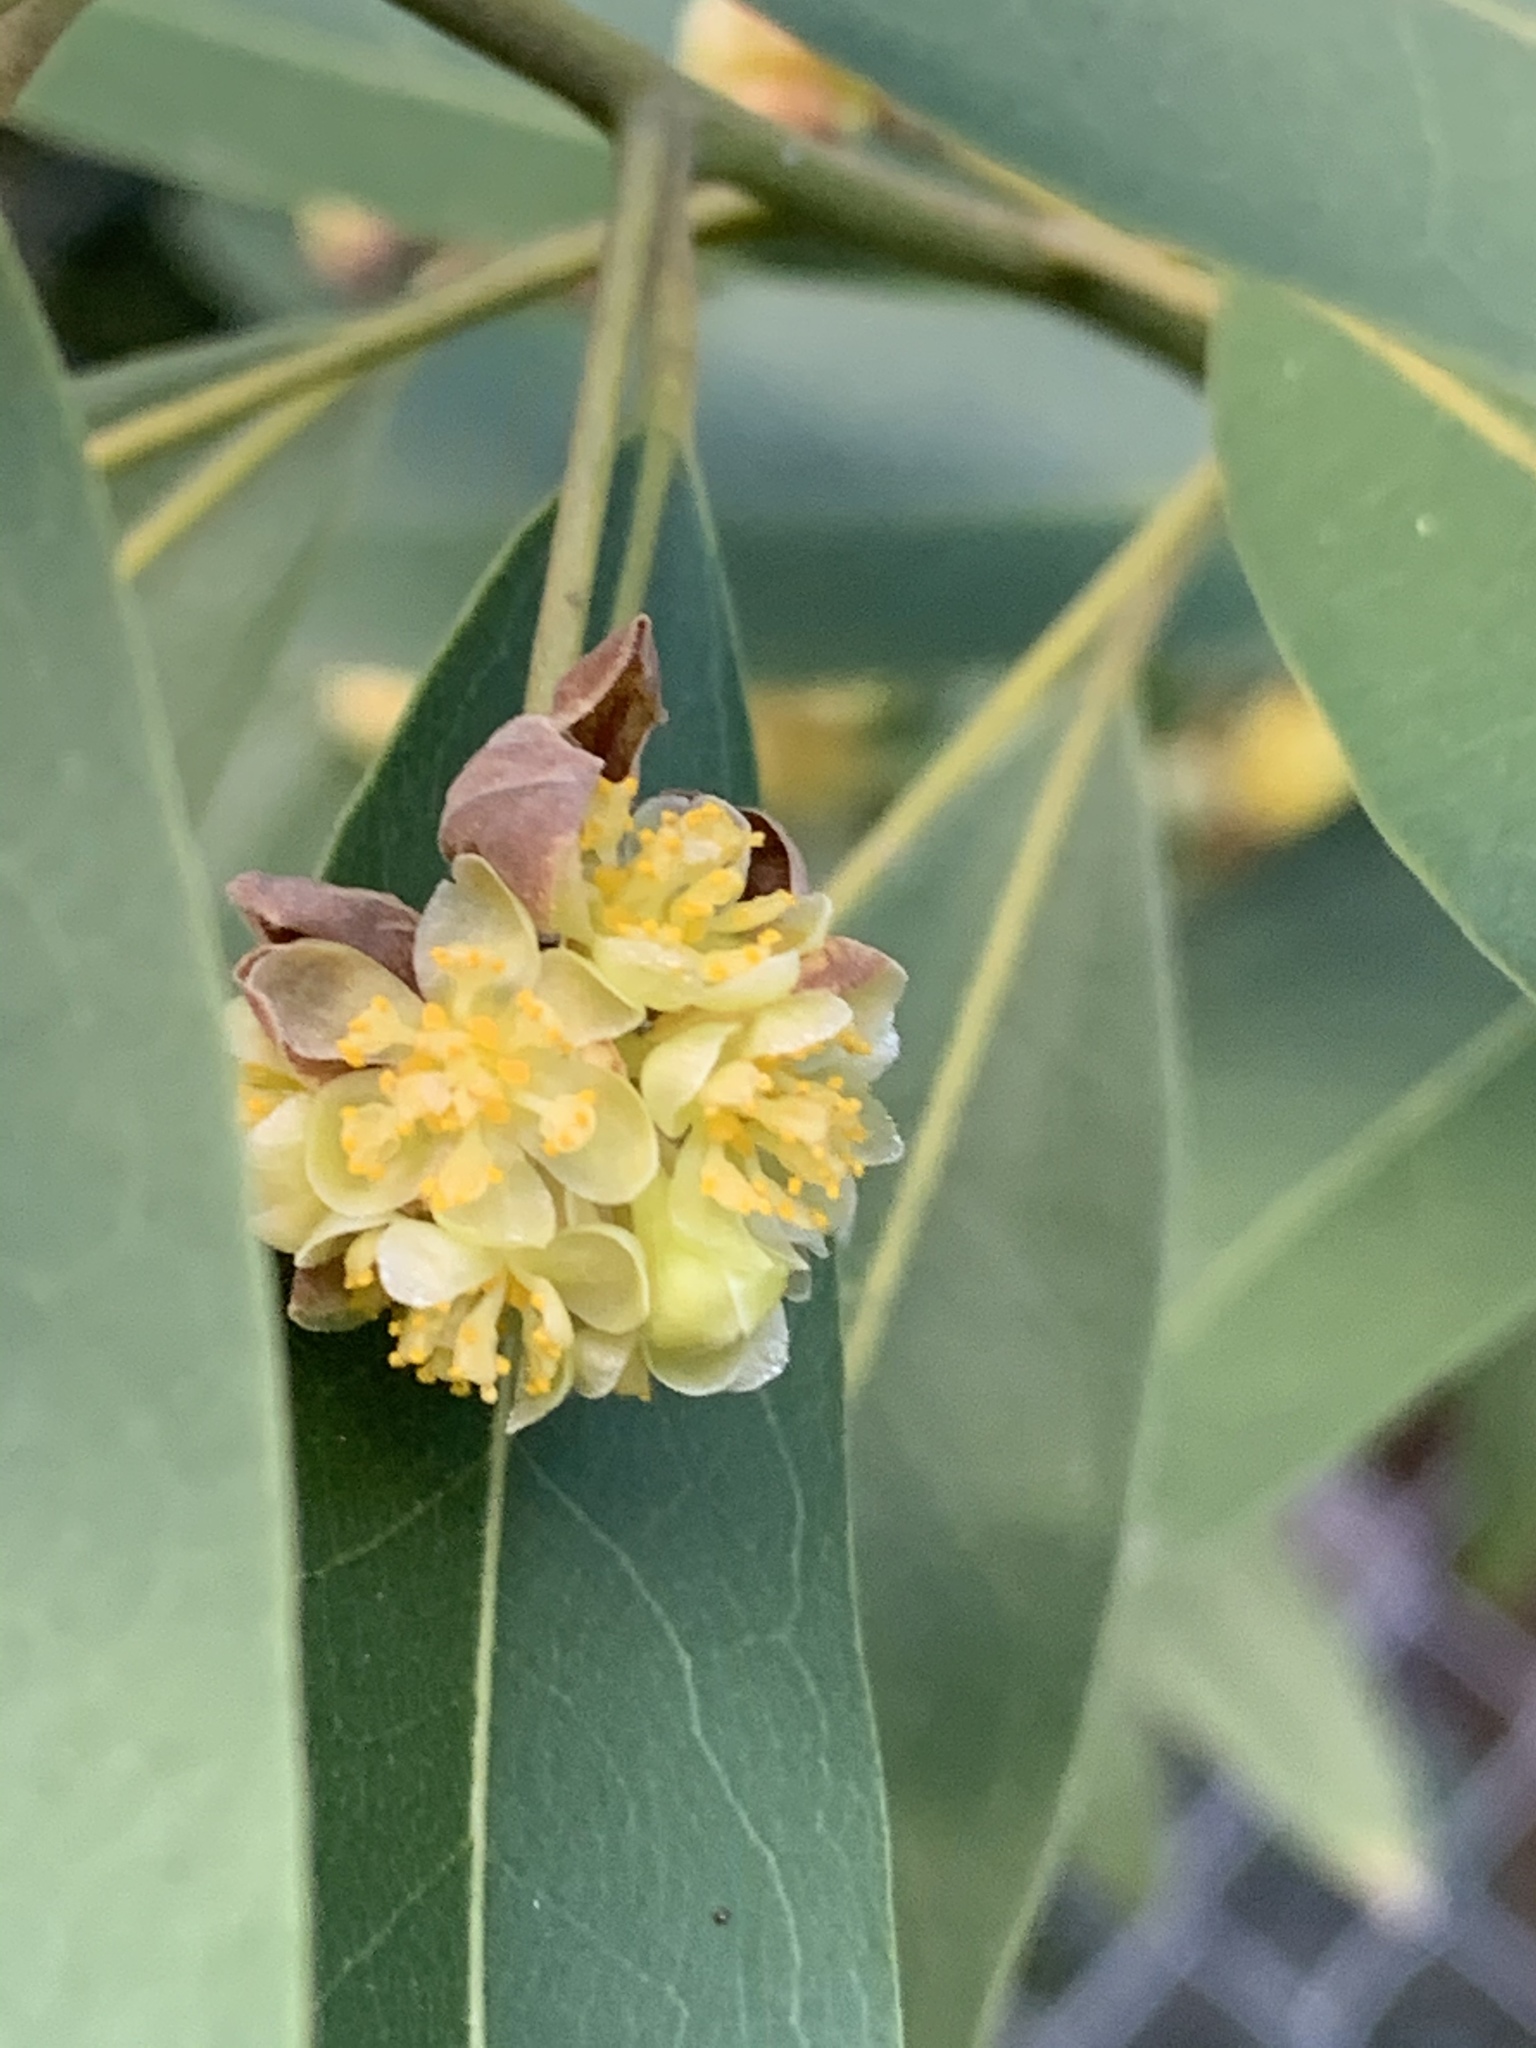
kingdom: Plantae
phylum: Tracheophyta
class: Magnoliopsida
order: Laurales
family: Lauraceae
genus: Umbellularia
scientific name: Umbellularia californica
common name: California bay
